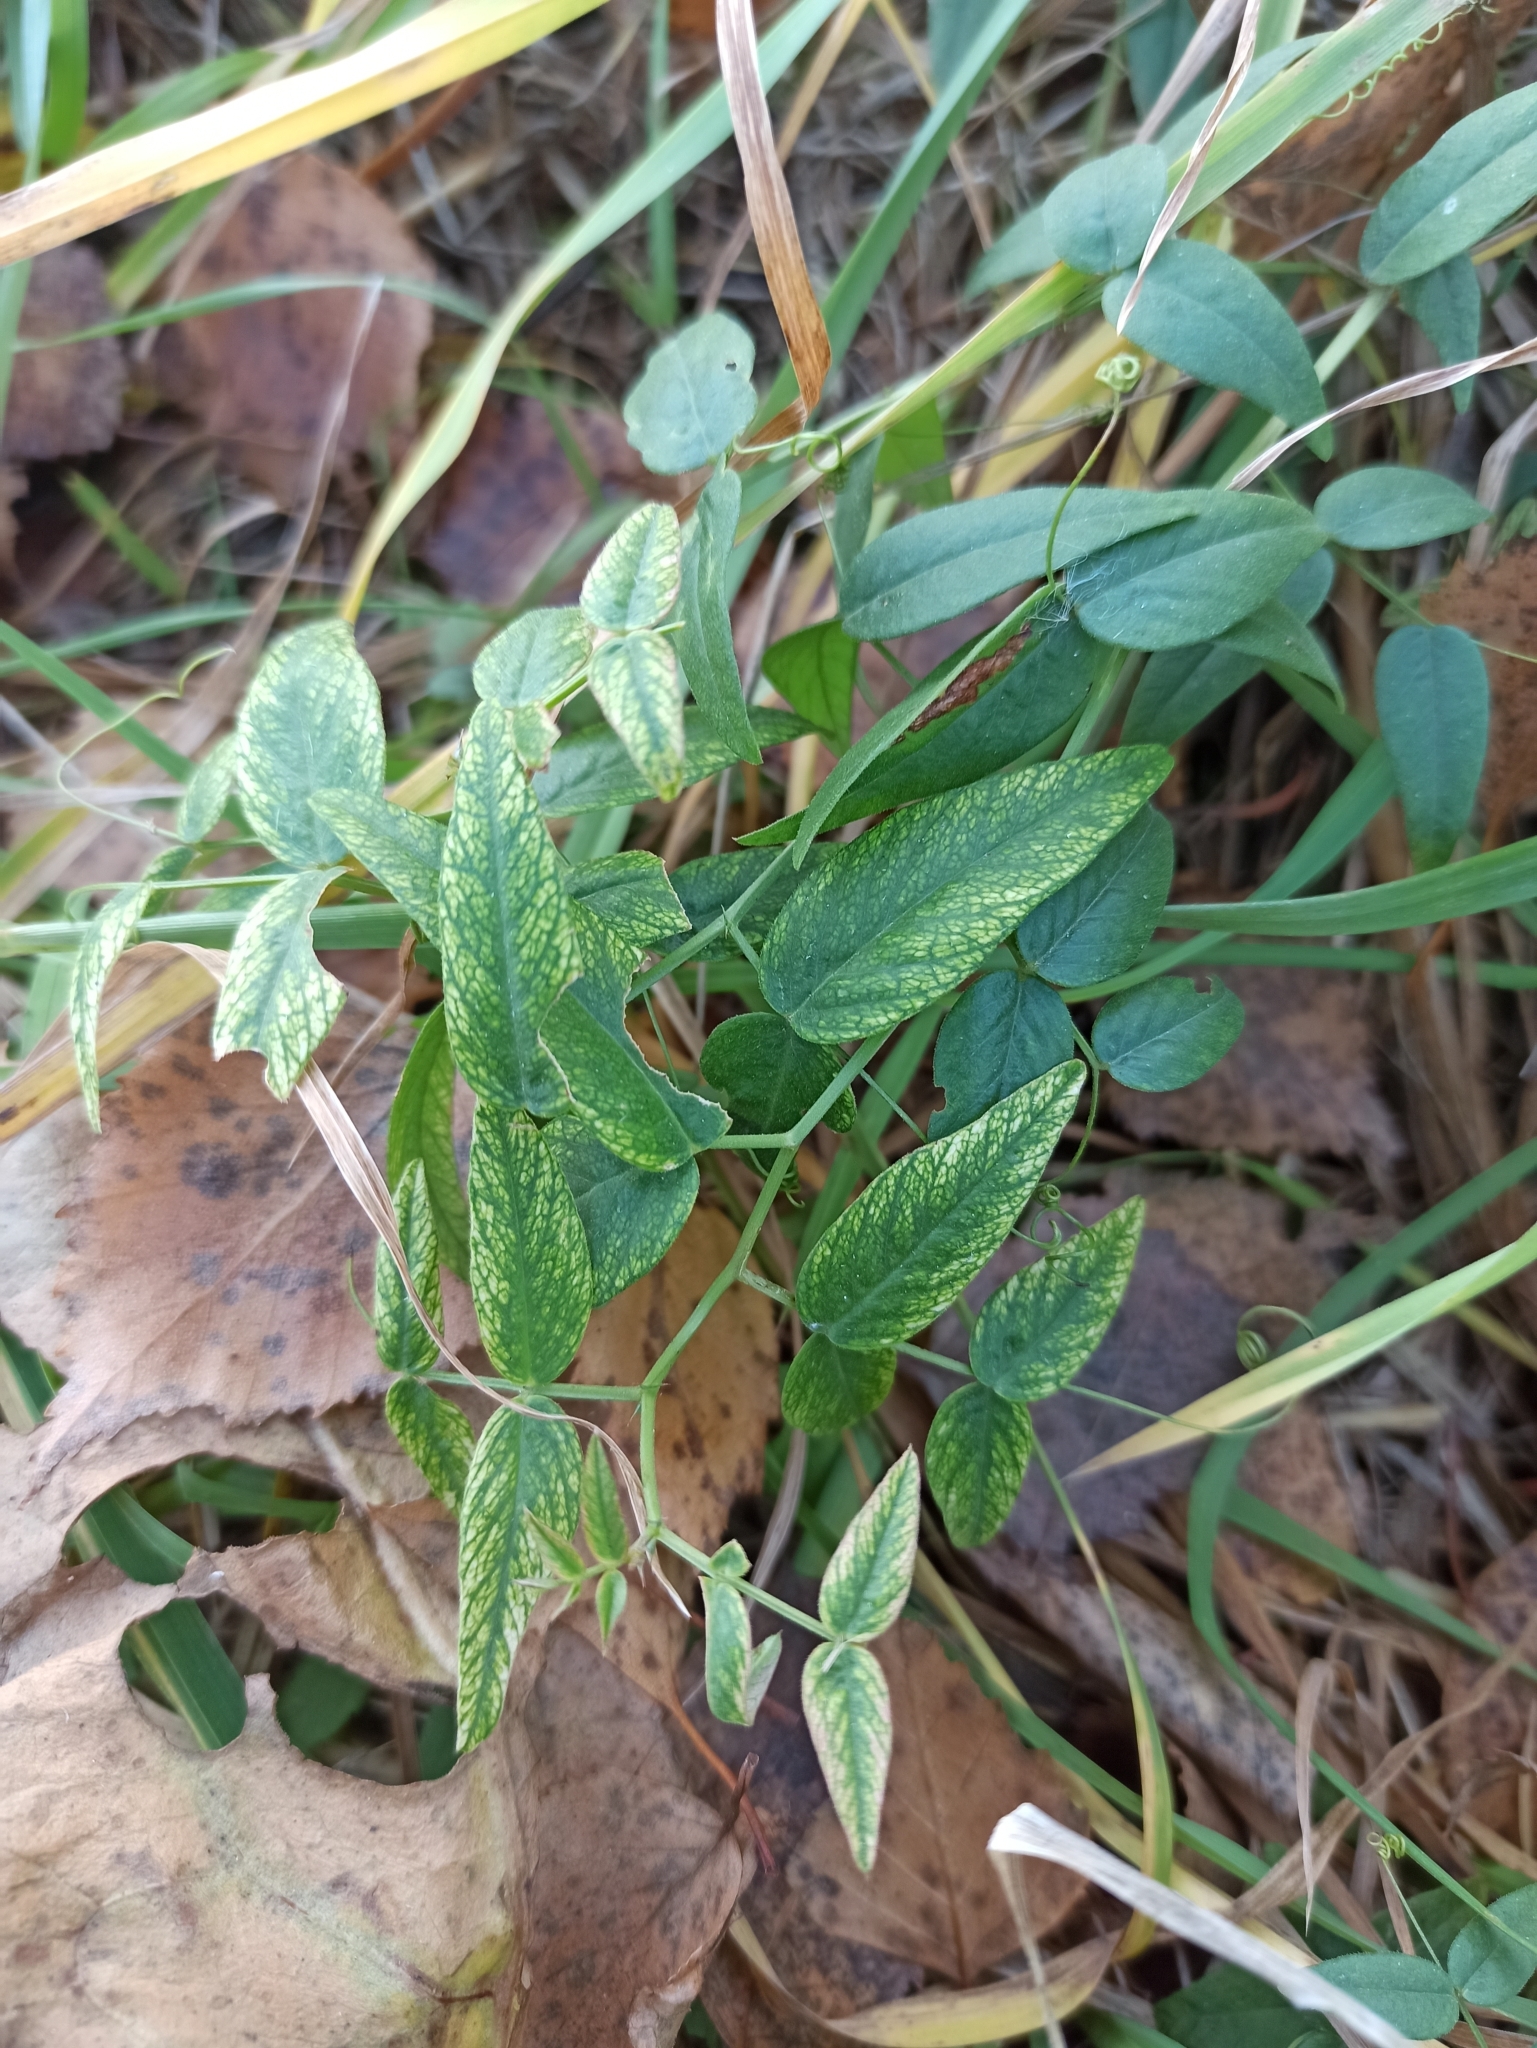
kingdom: Plantae
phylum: Tracheophyta
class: Magnoliopsida
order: Fabales
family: Fabaceae
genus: Vicia
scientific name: Vicia sepium
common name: Bush vetch
